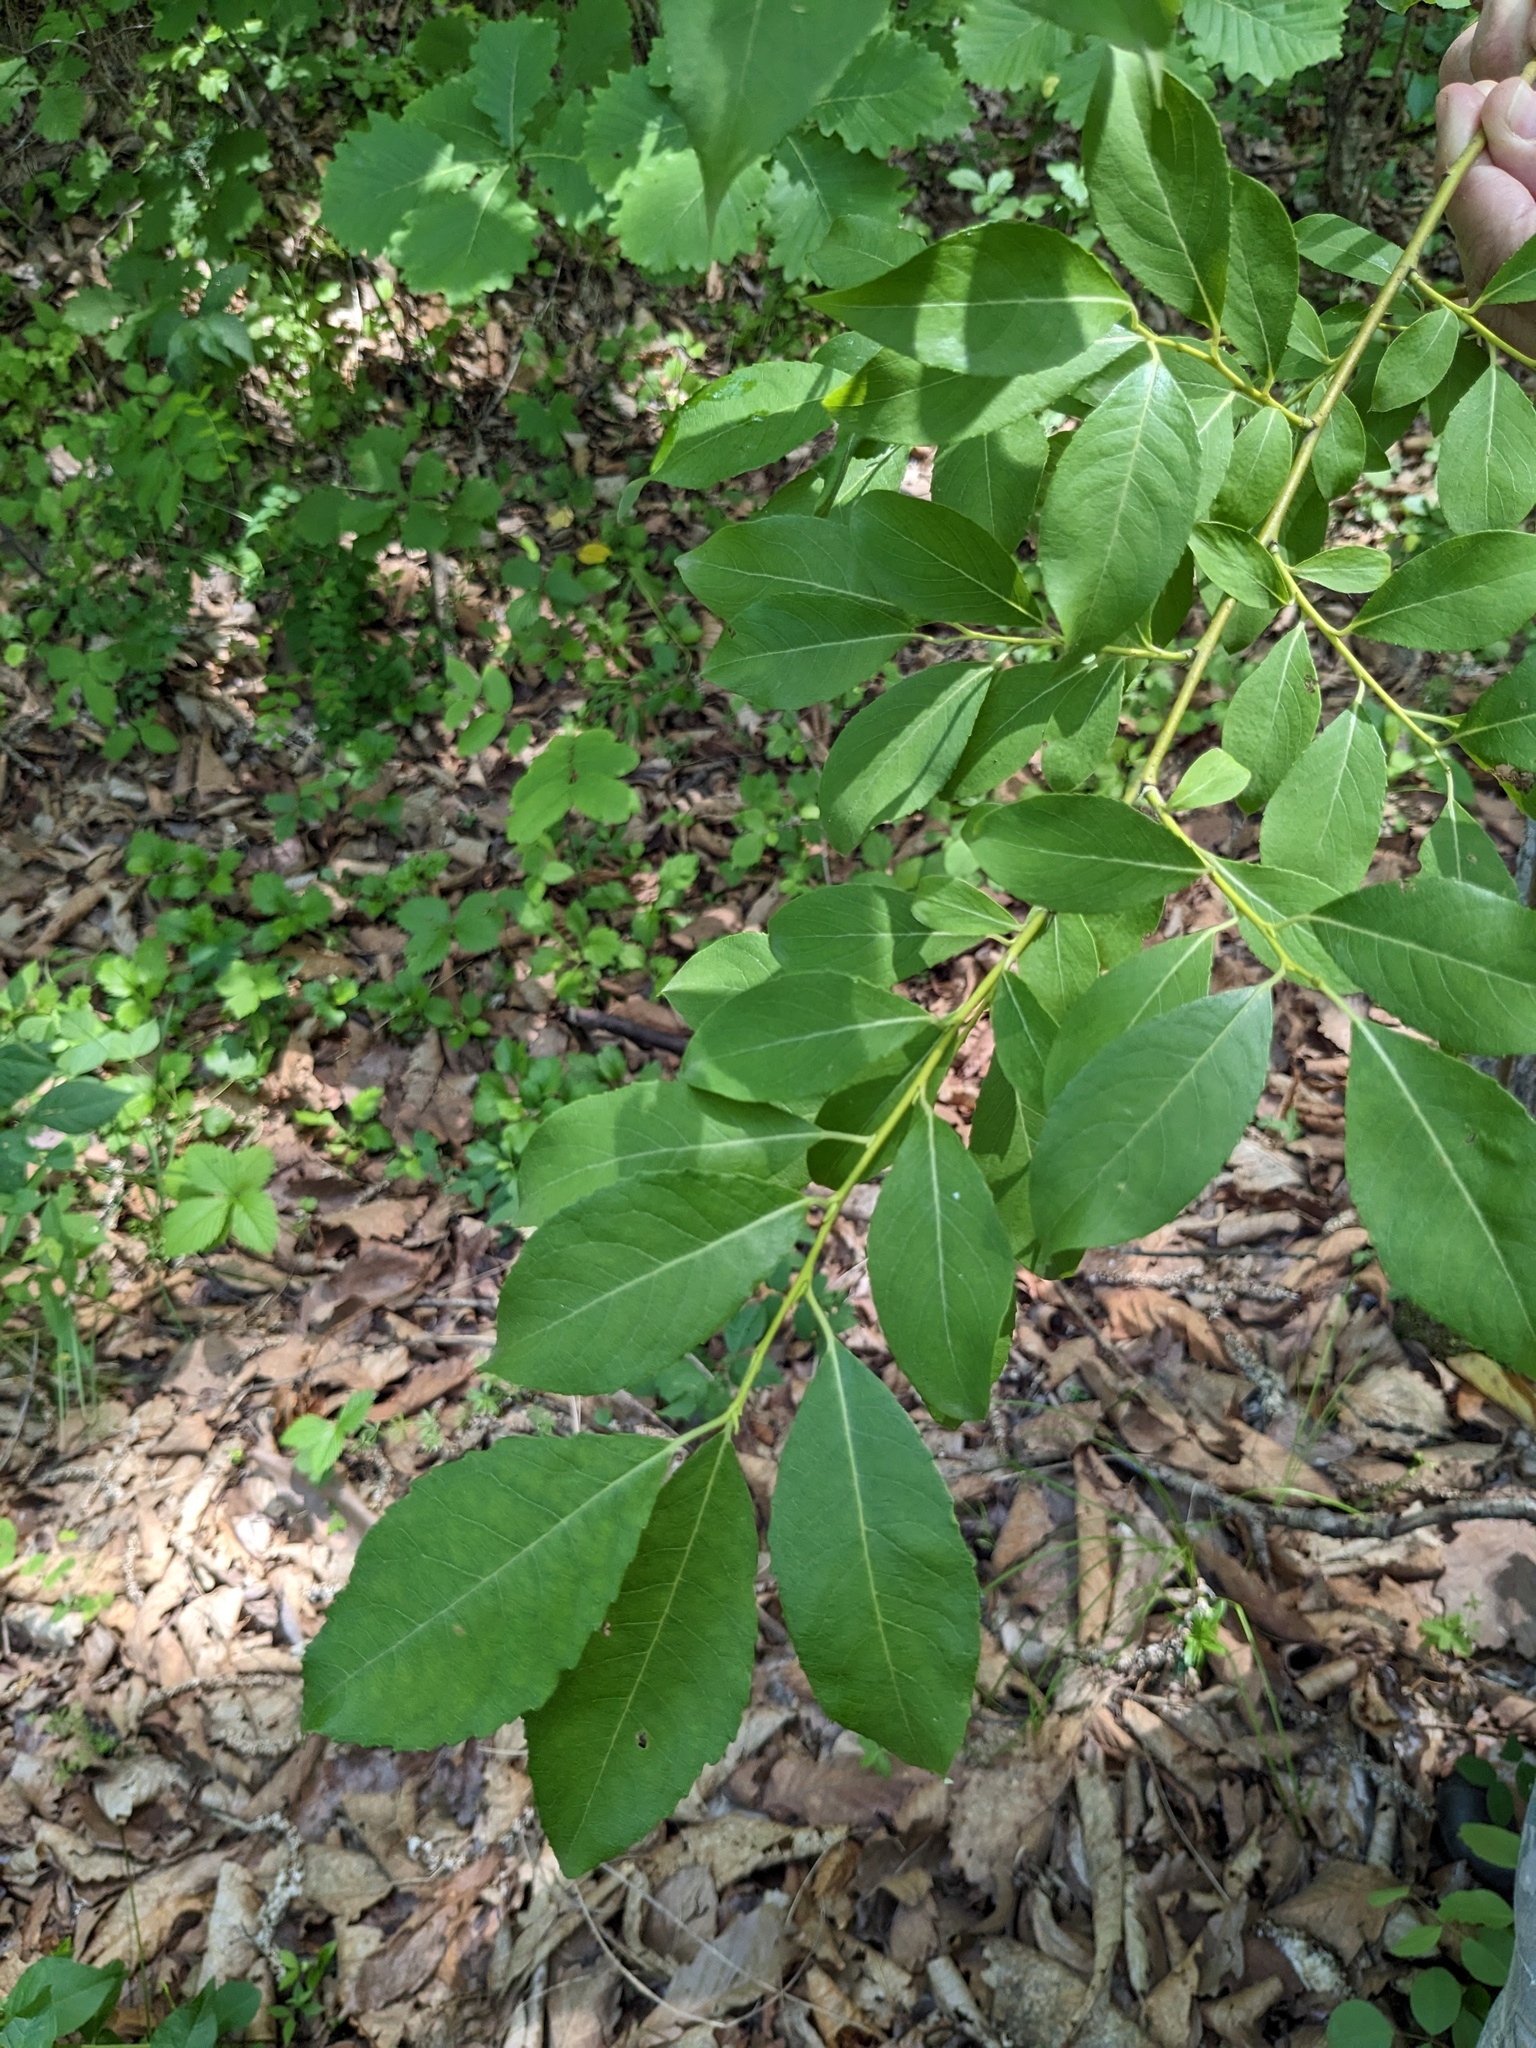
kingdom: Plantae
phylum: Tracheophyta
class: Magnoliopsida
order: Malpighiales
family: Salicaceae
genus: Salix
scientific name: Salix taraikensis
